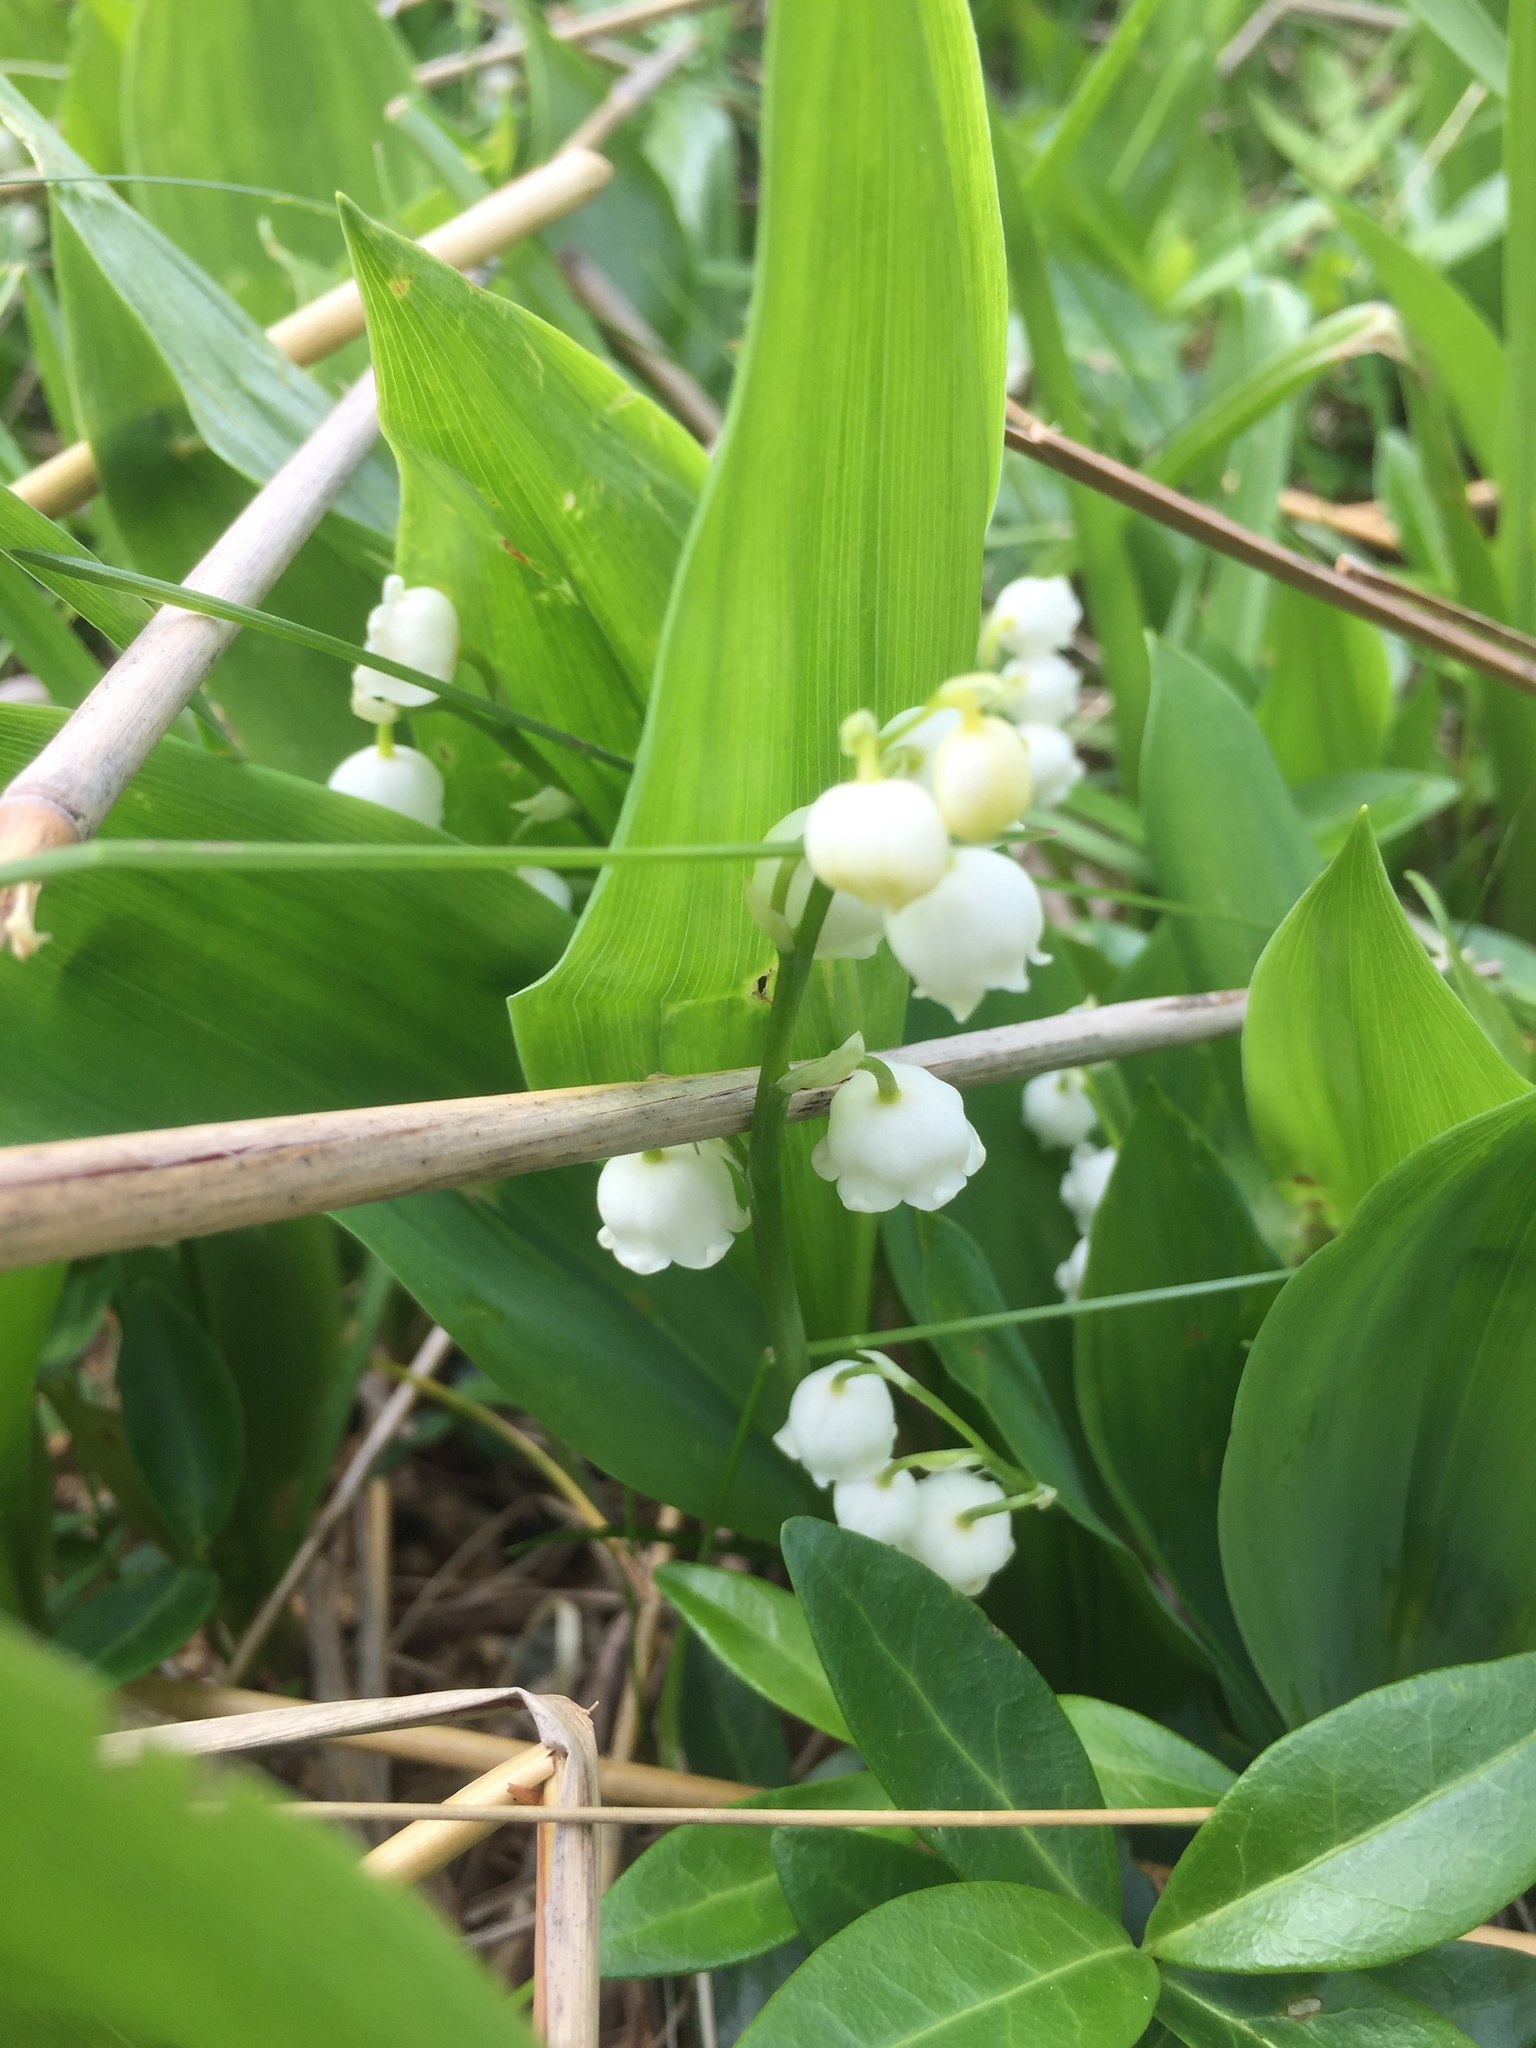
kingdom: Plantae
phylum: Tracheophyta
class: Liliopsida
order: Asparagales
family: Asparagaceae
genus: Convallaria
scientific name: Convallaria majalis
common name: Lily-of-the-valley
